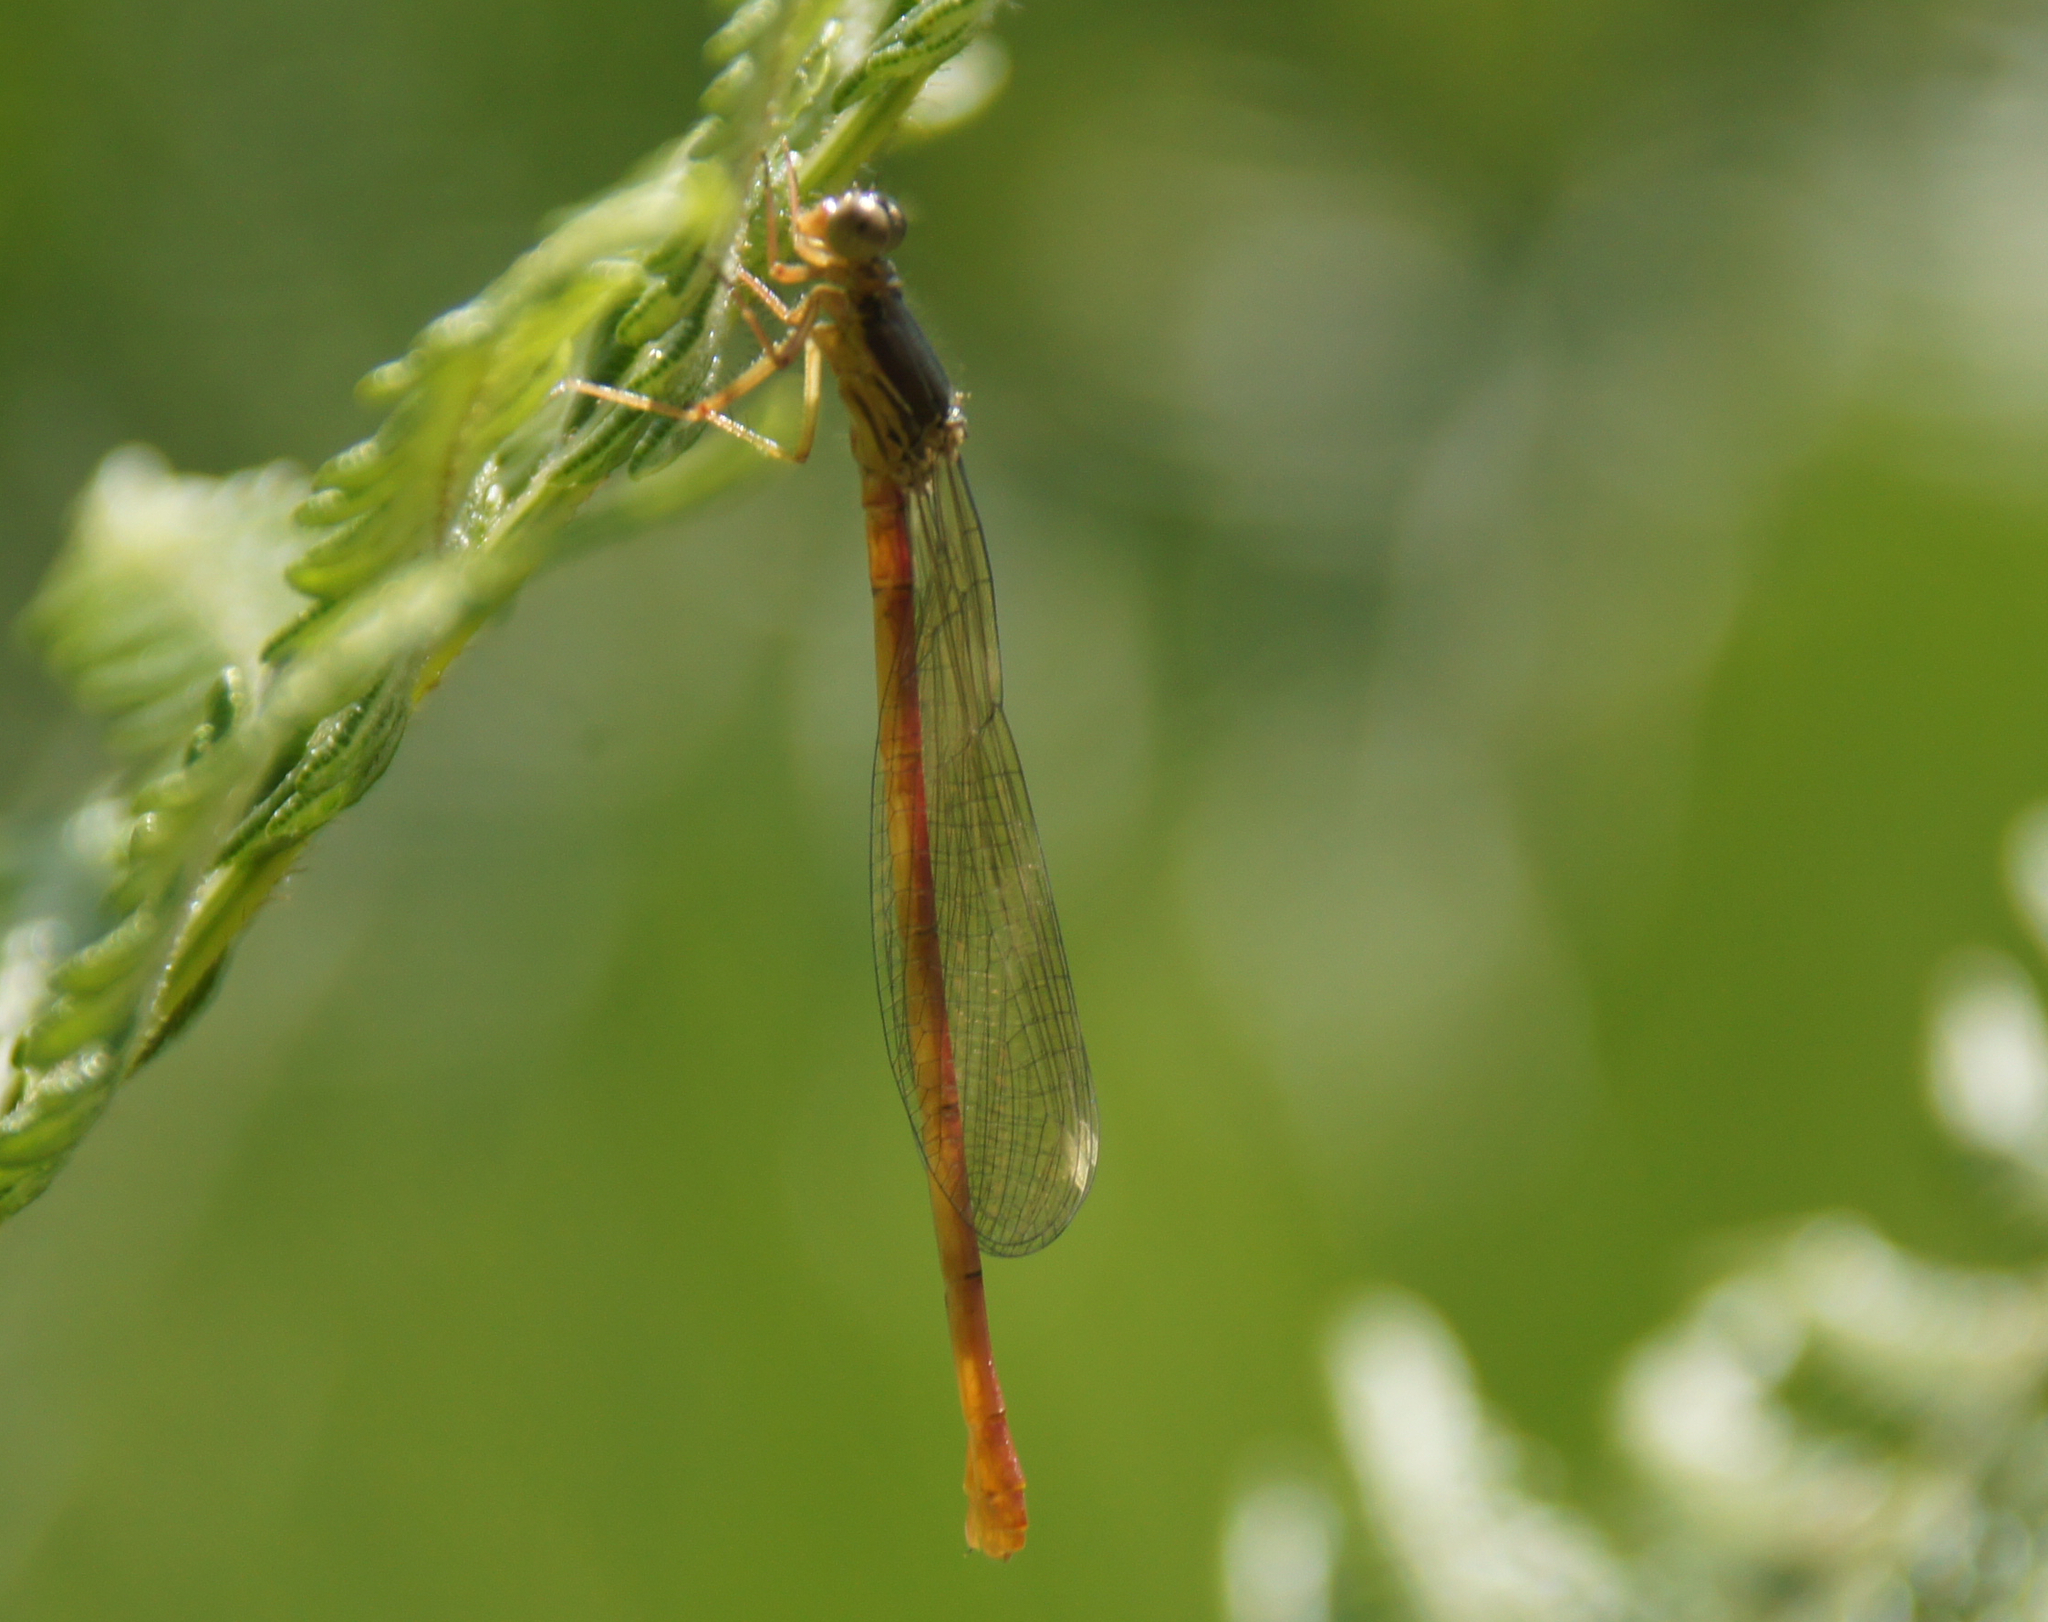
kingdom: Animalia
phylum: Arthropoda
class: Insecta
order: Odonata
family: Coenagrionidae
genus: Ceriagrion
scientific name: Ceriagrion tenellum
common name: Small red damselfly
